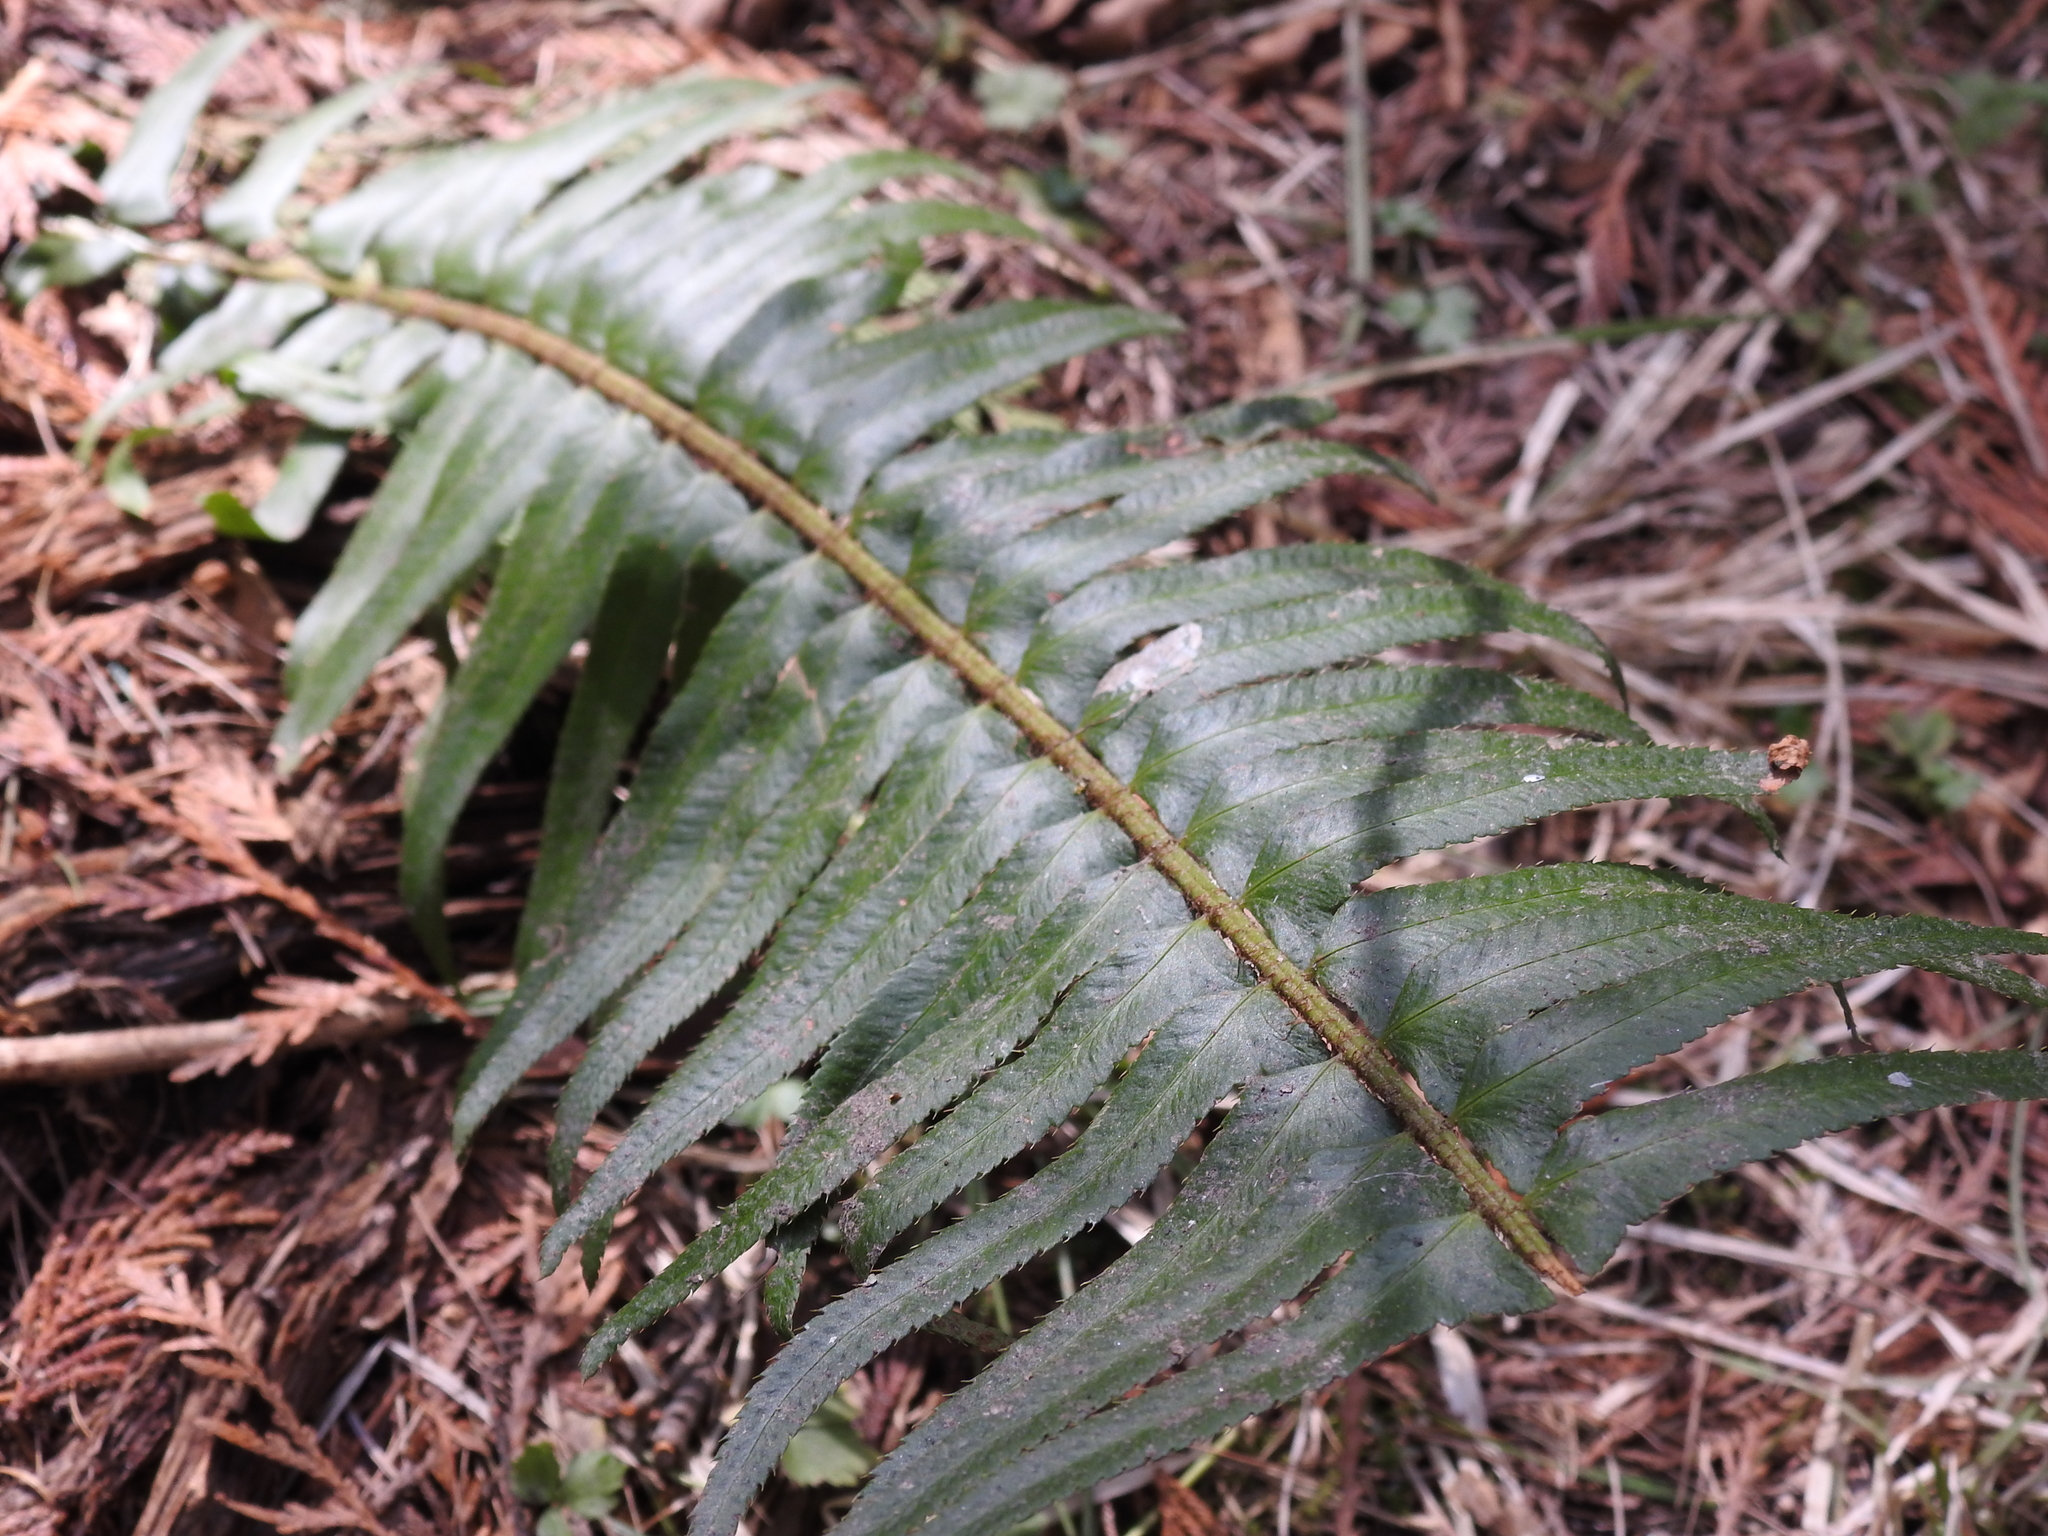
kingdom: Plantae
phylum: Tracheophyta
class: Polypodiopsida
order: Polypodiales
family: Dryopteridaceae
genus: Polystichum
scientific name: Polystichum munitum
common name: Western sword-fern
